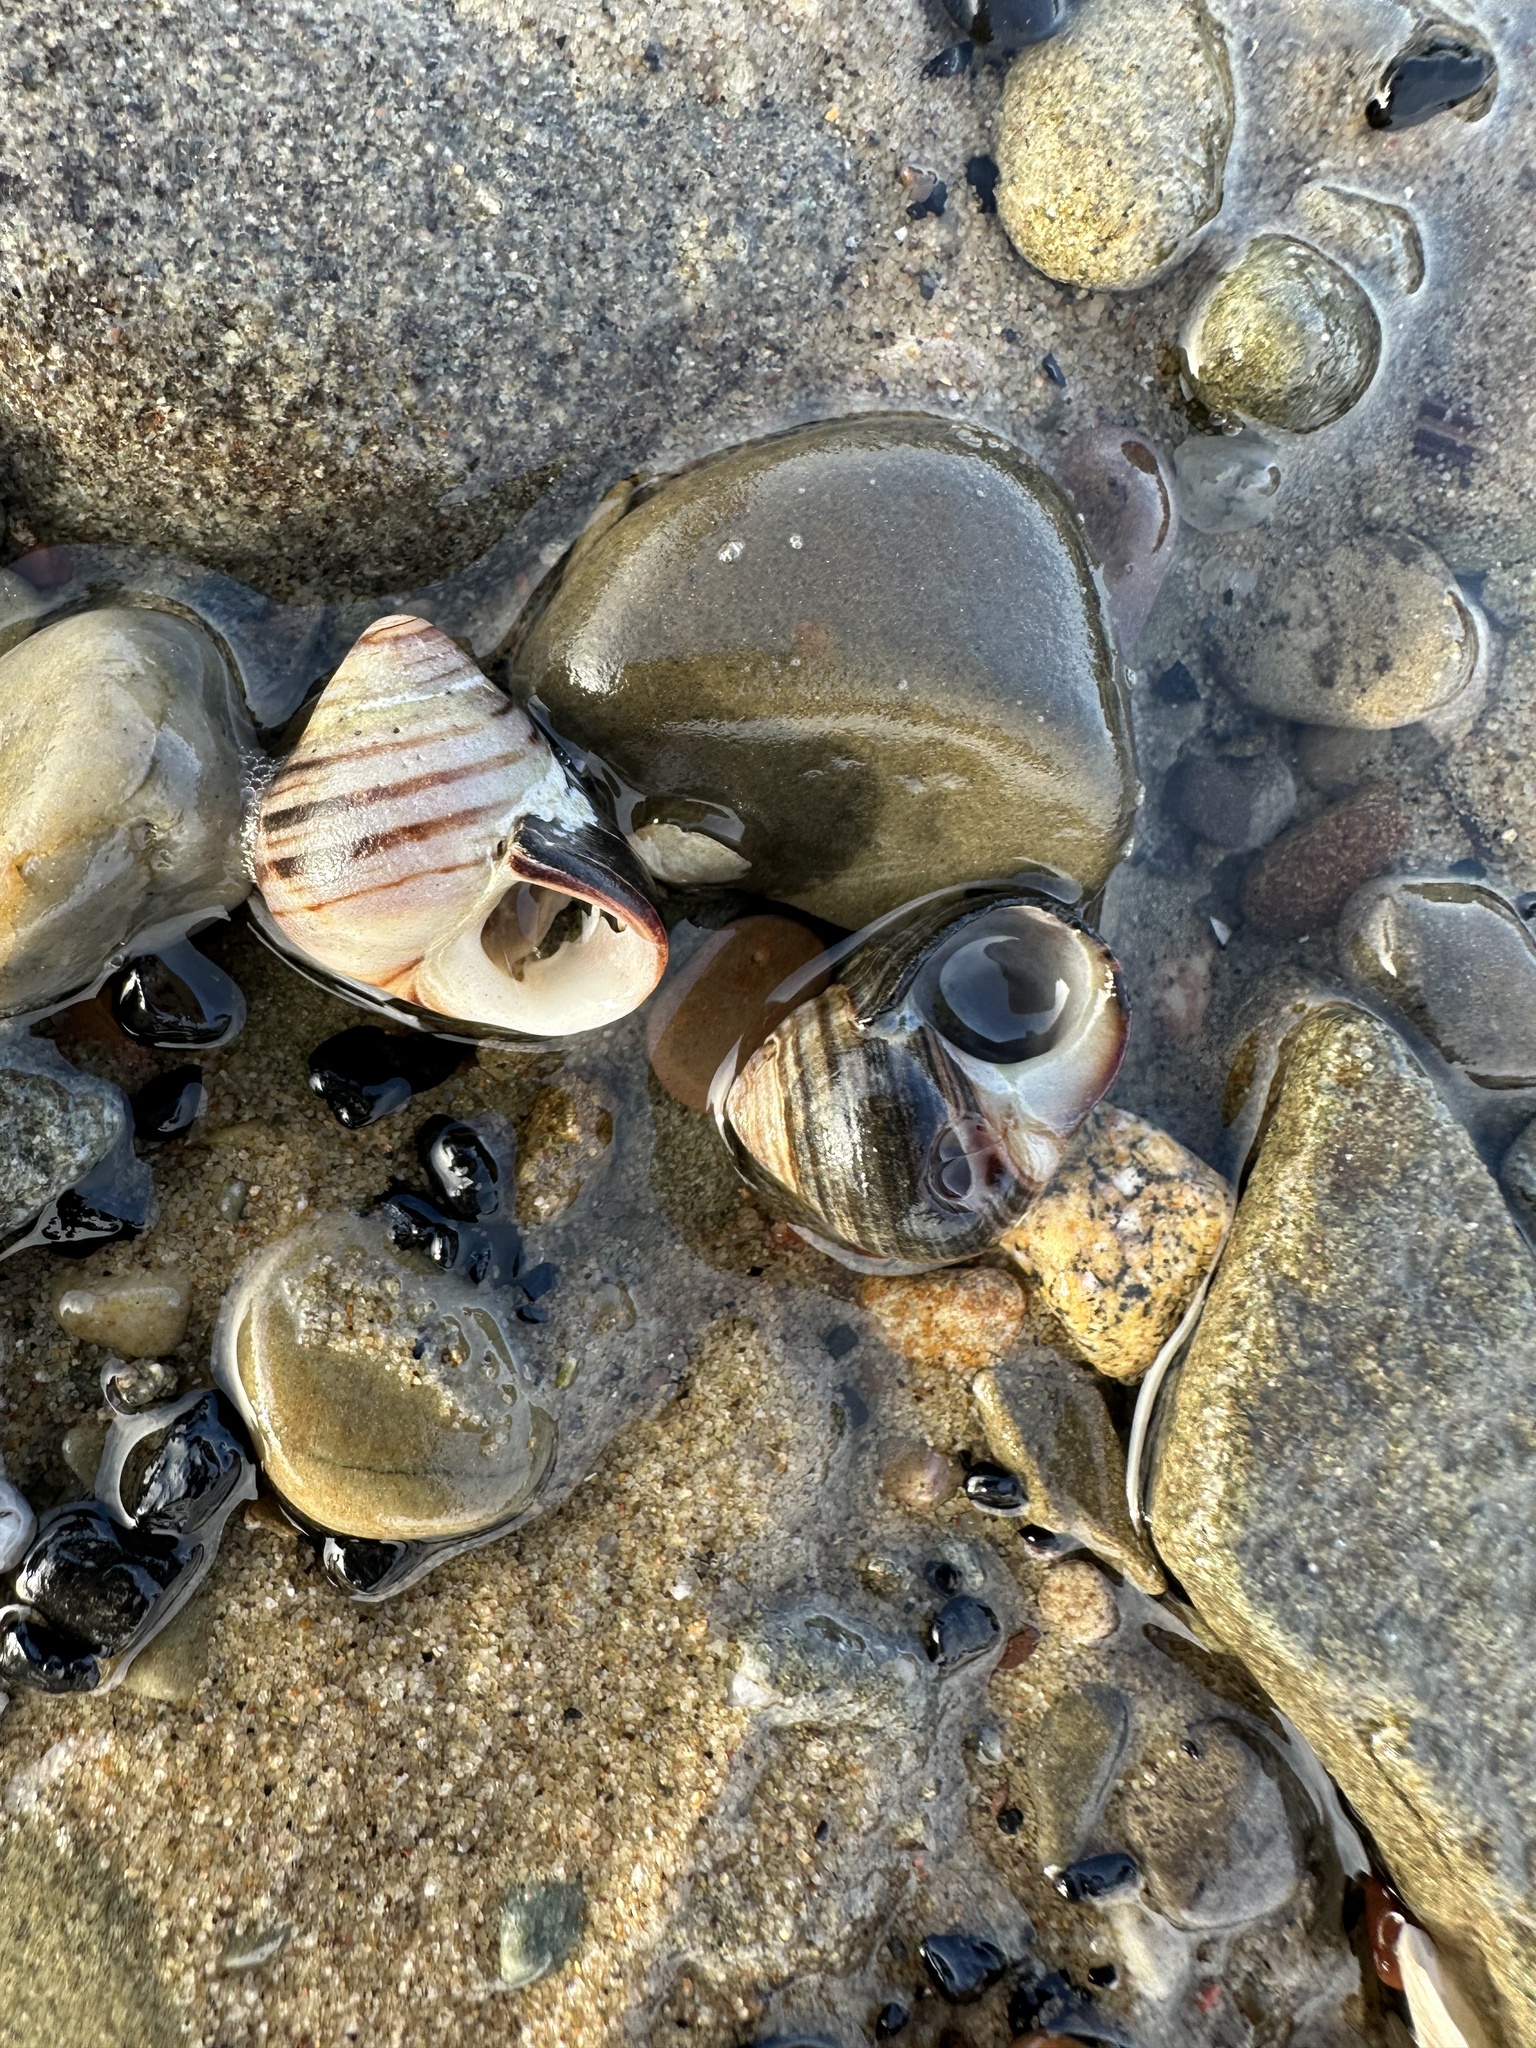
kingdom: Animalia
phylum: Mollusca
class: Gastropoda
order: Littorinimorpha
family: Littorinidae
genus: Littorina
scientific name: Littorina littorea
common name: Common periwinkle
